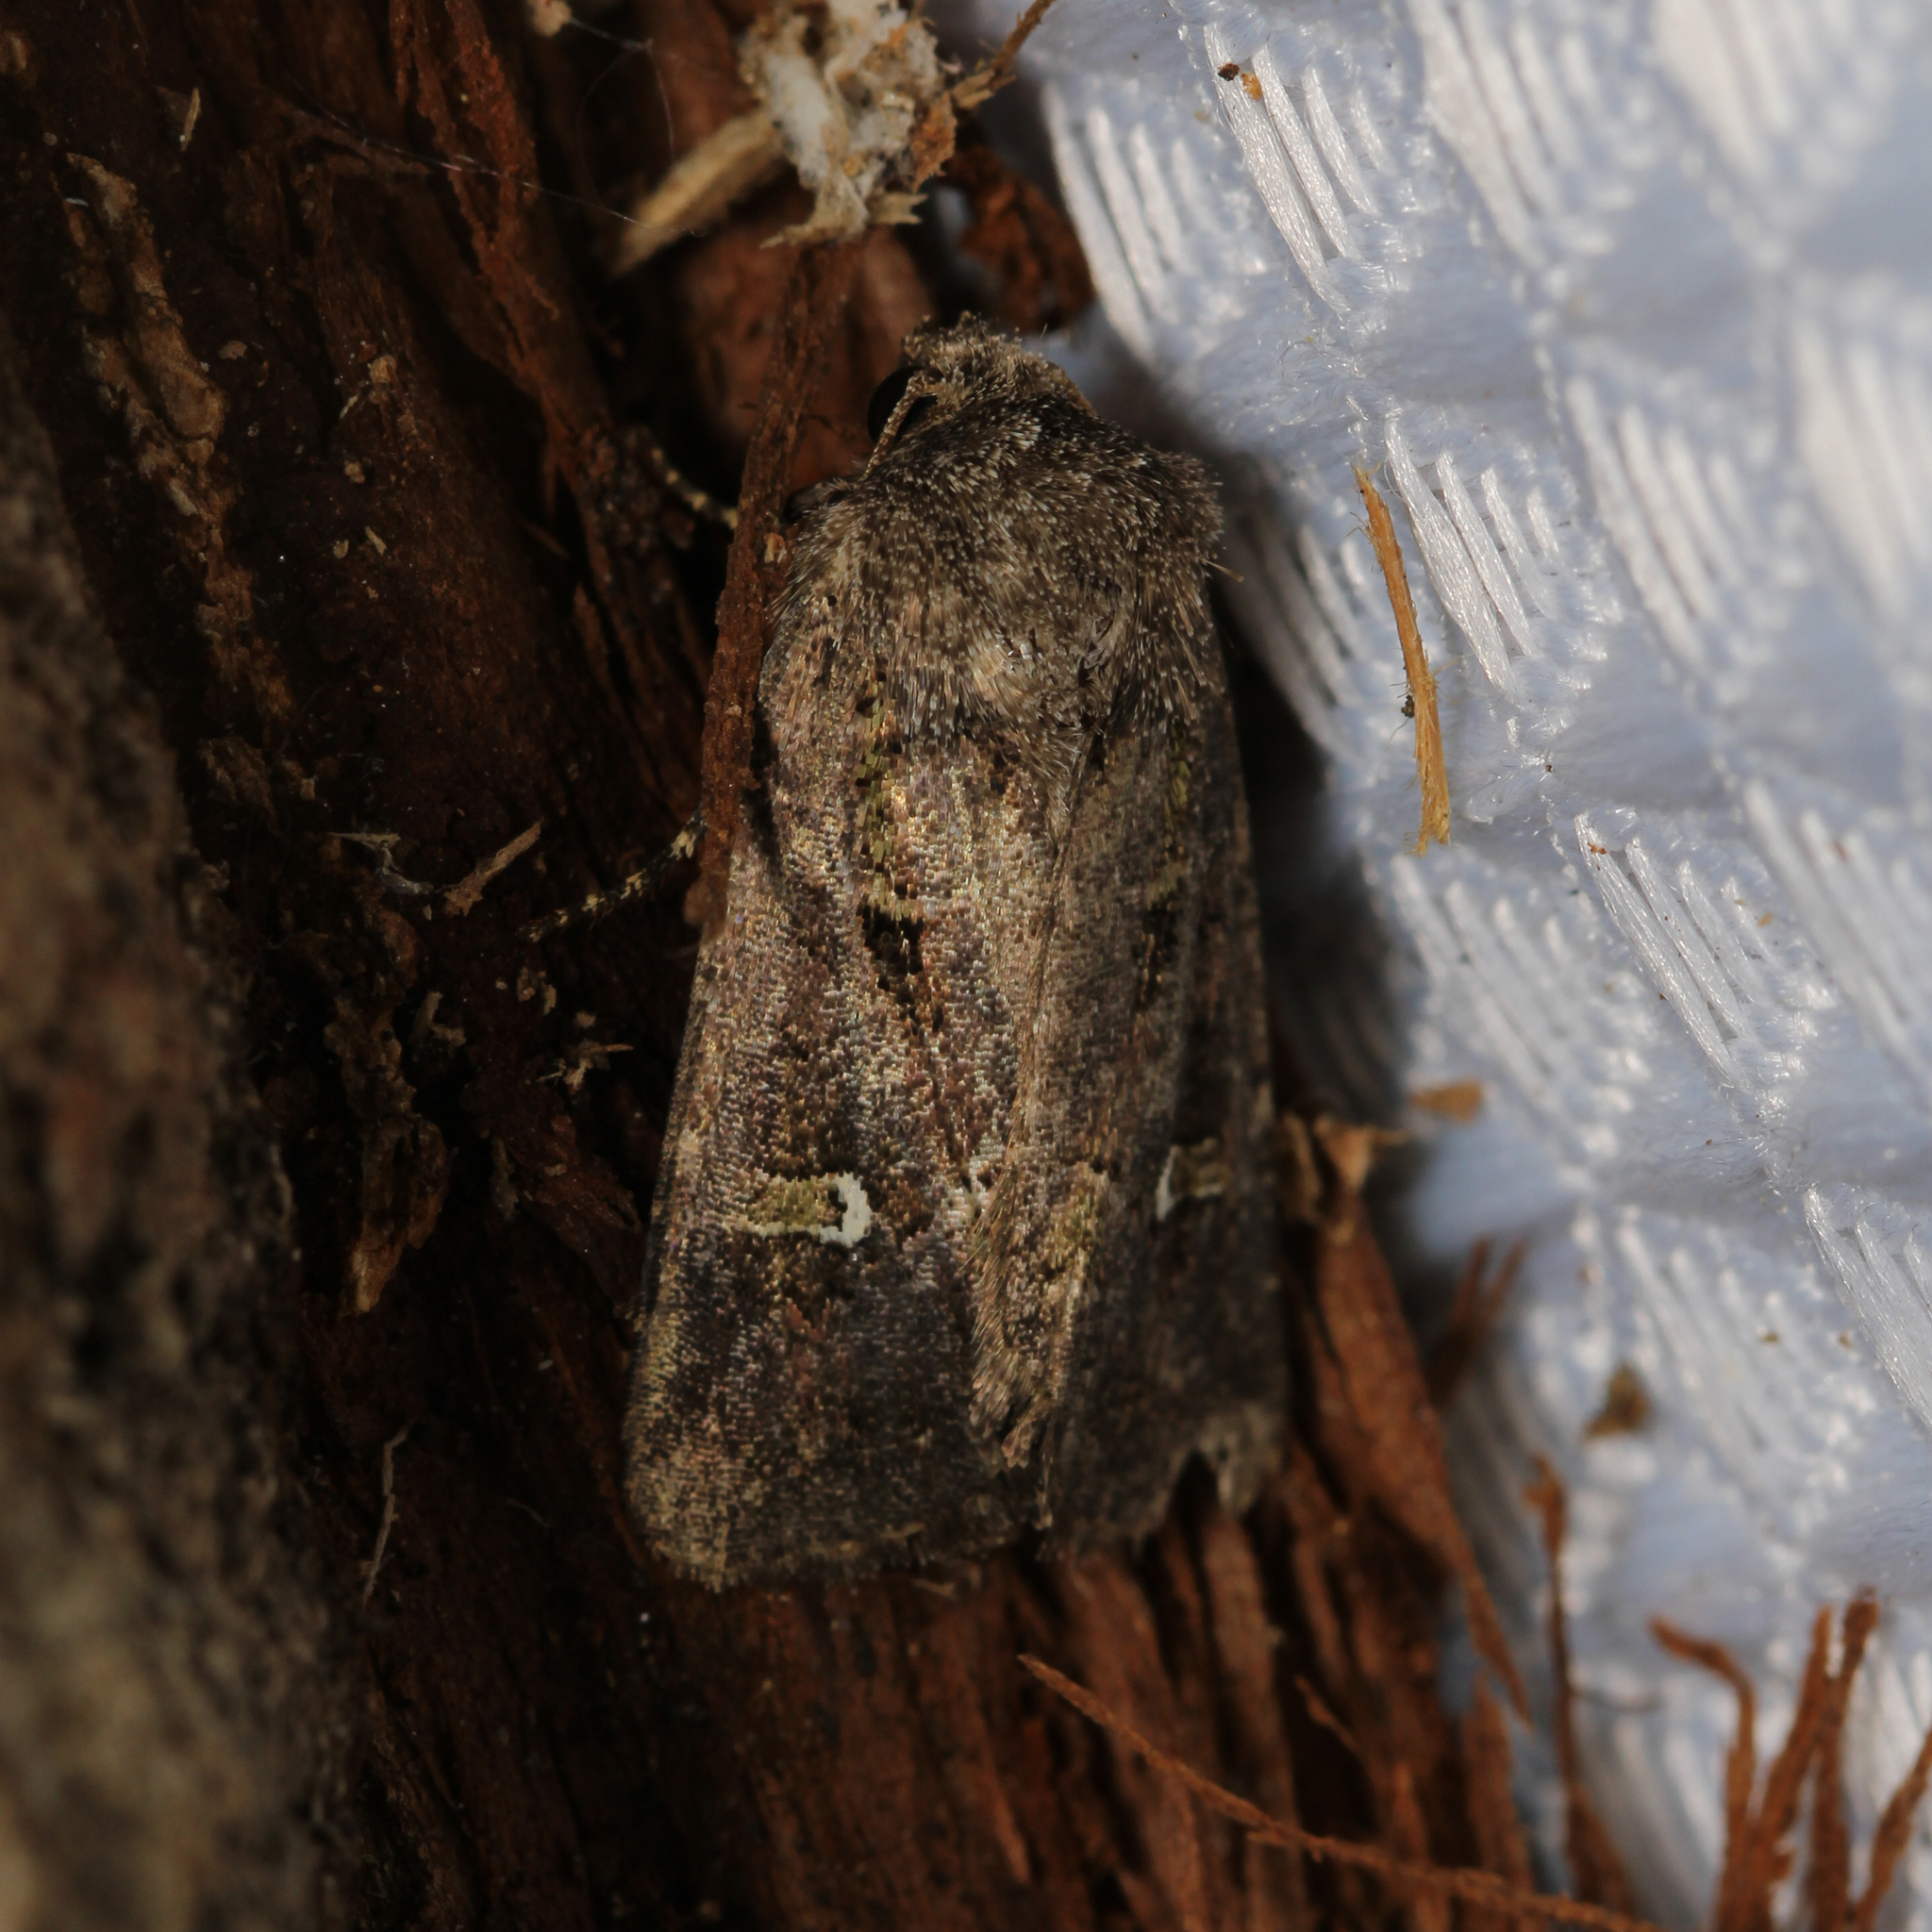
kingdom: Animalia
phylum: Arthropoda
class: Insecta
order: Lepidoptera
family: Noctuidae
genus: Lacinipolia
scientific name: Lacinipolia renigera
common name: Kidney-spotted minor
